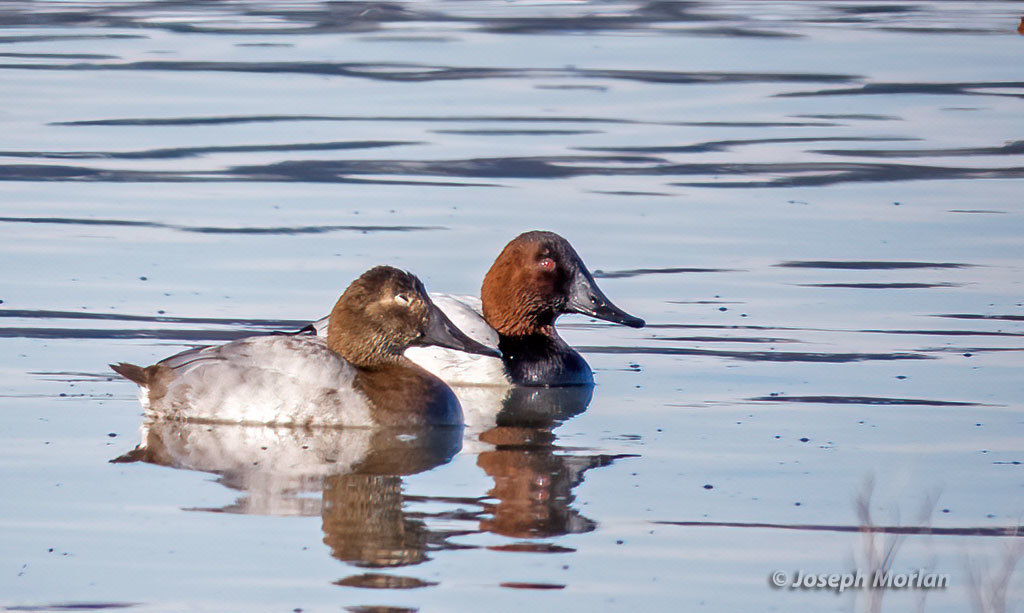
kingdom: Animalia
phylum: Chordata
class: Aves
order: Anseriformes
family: Anatidae
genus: Aythya
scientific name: Aythya valisineria
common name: Canvasback
